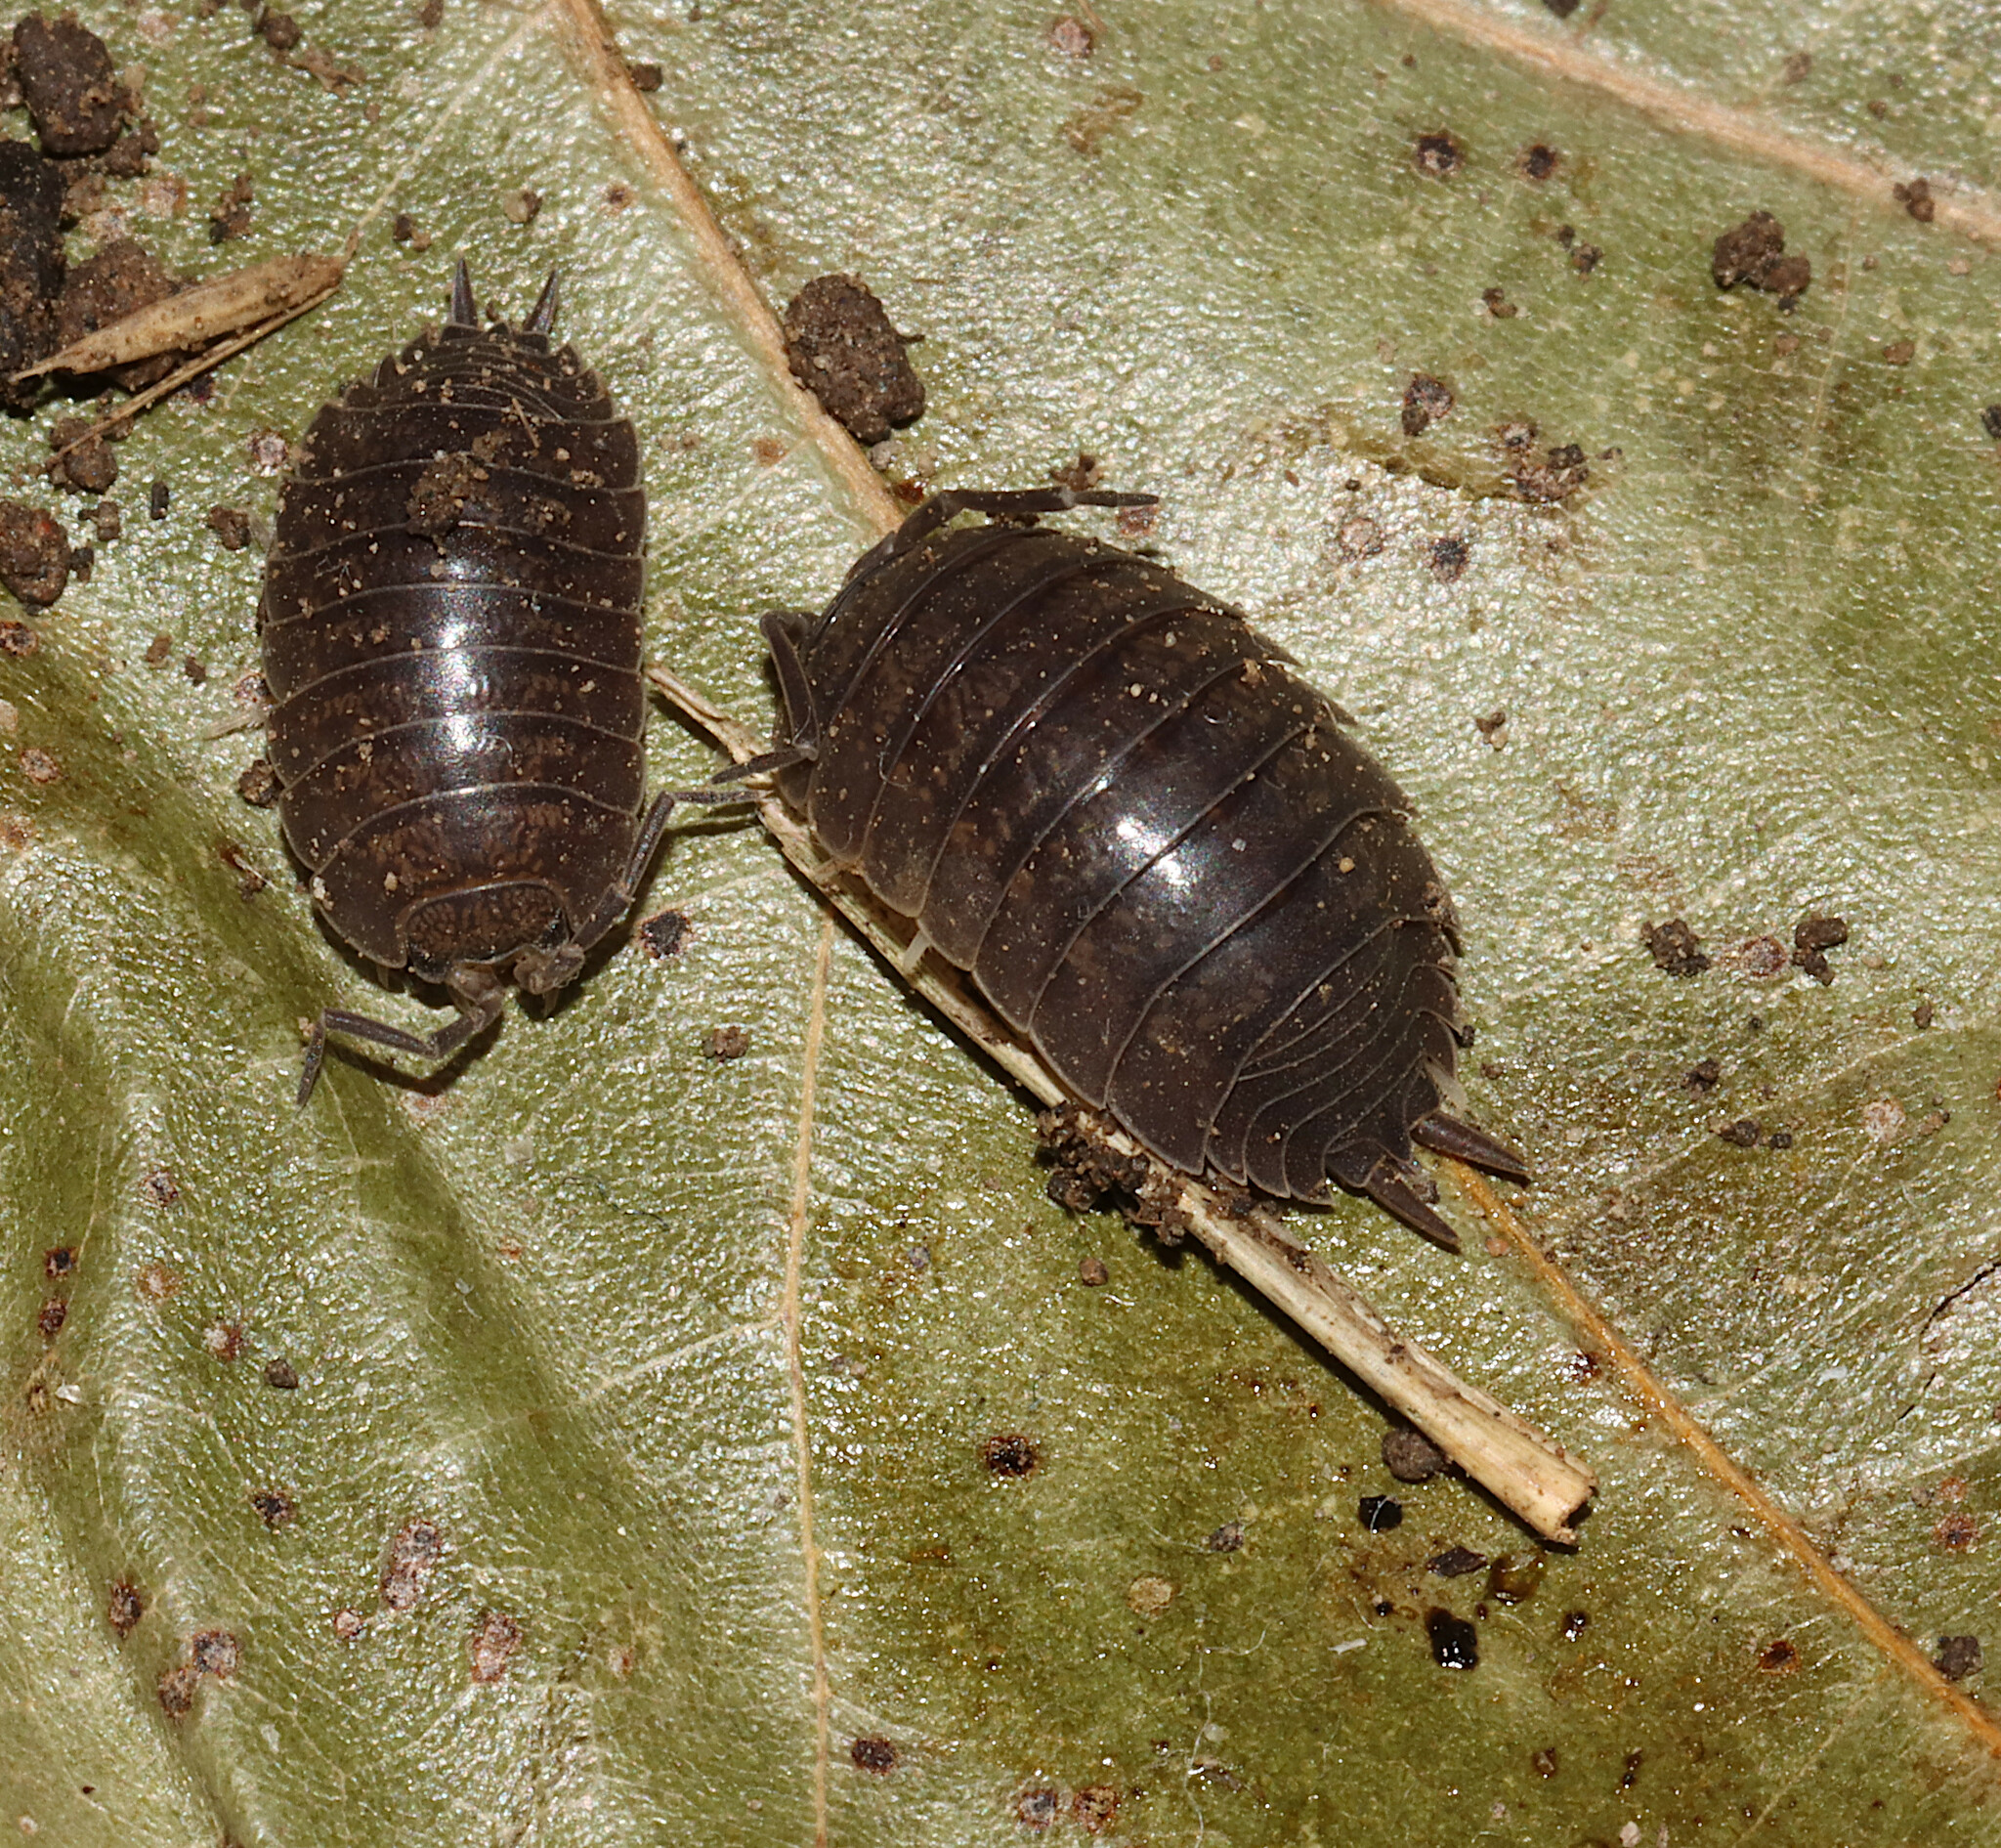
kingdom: Animalia
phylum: Arthropoda
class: Malacostraca
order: Isopoda
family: Porcellionidae
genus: Porcellio
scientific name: Porcellio laevis
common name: Swift woodlouse
